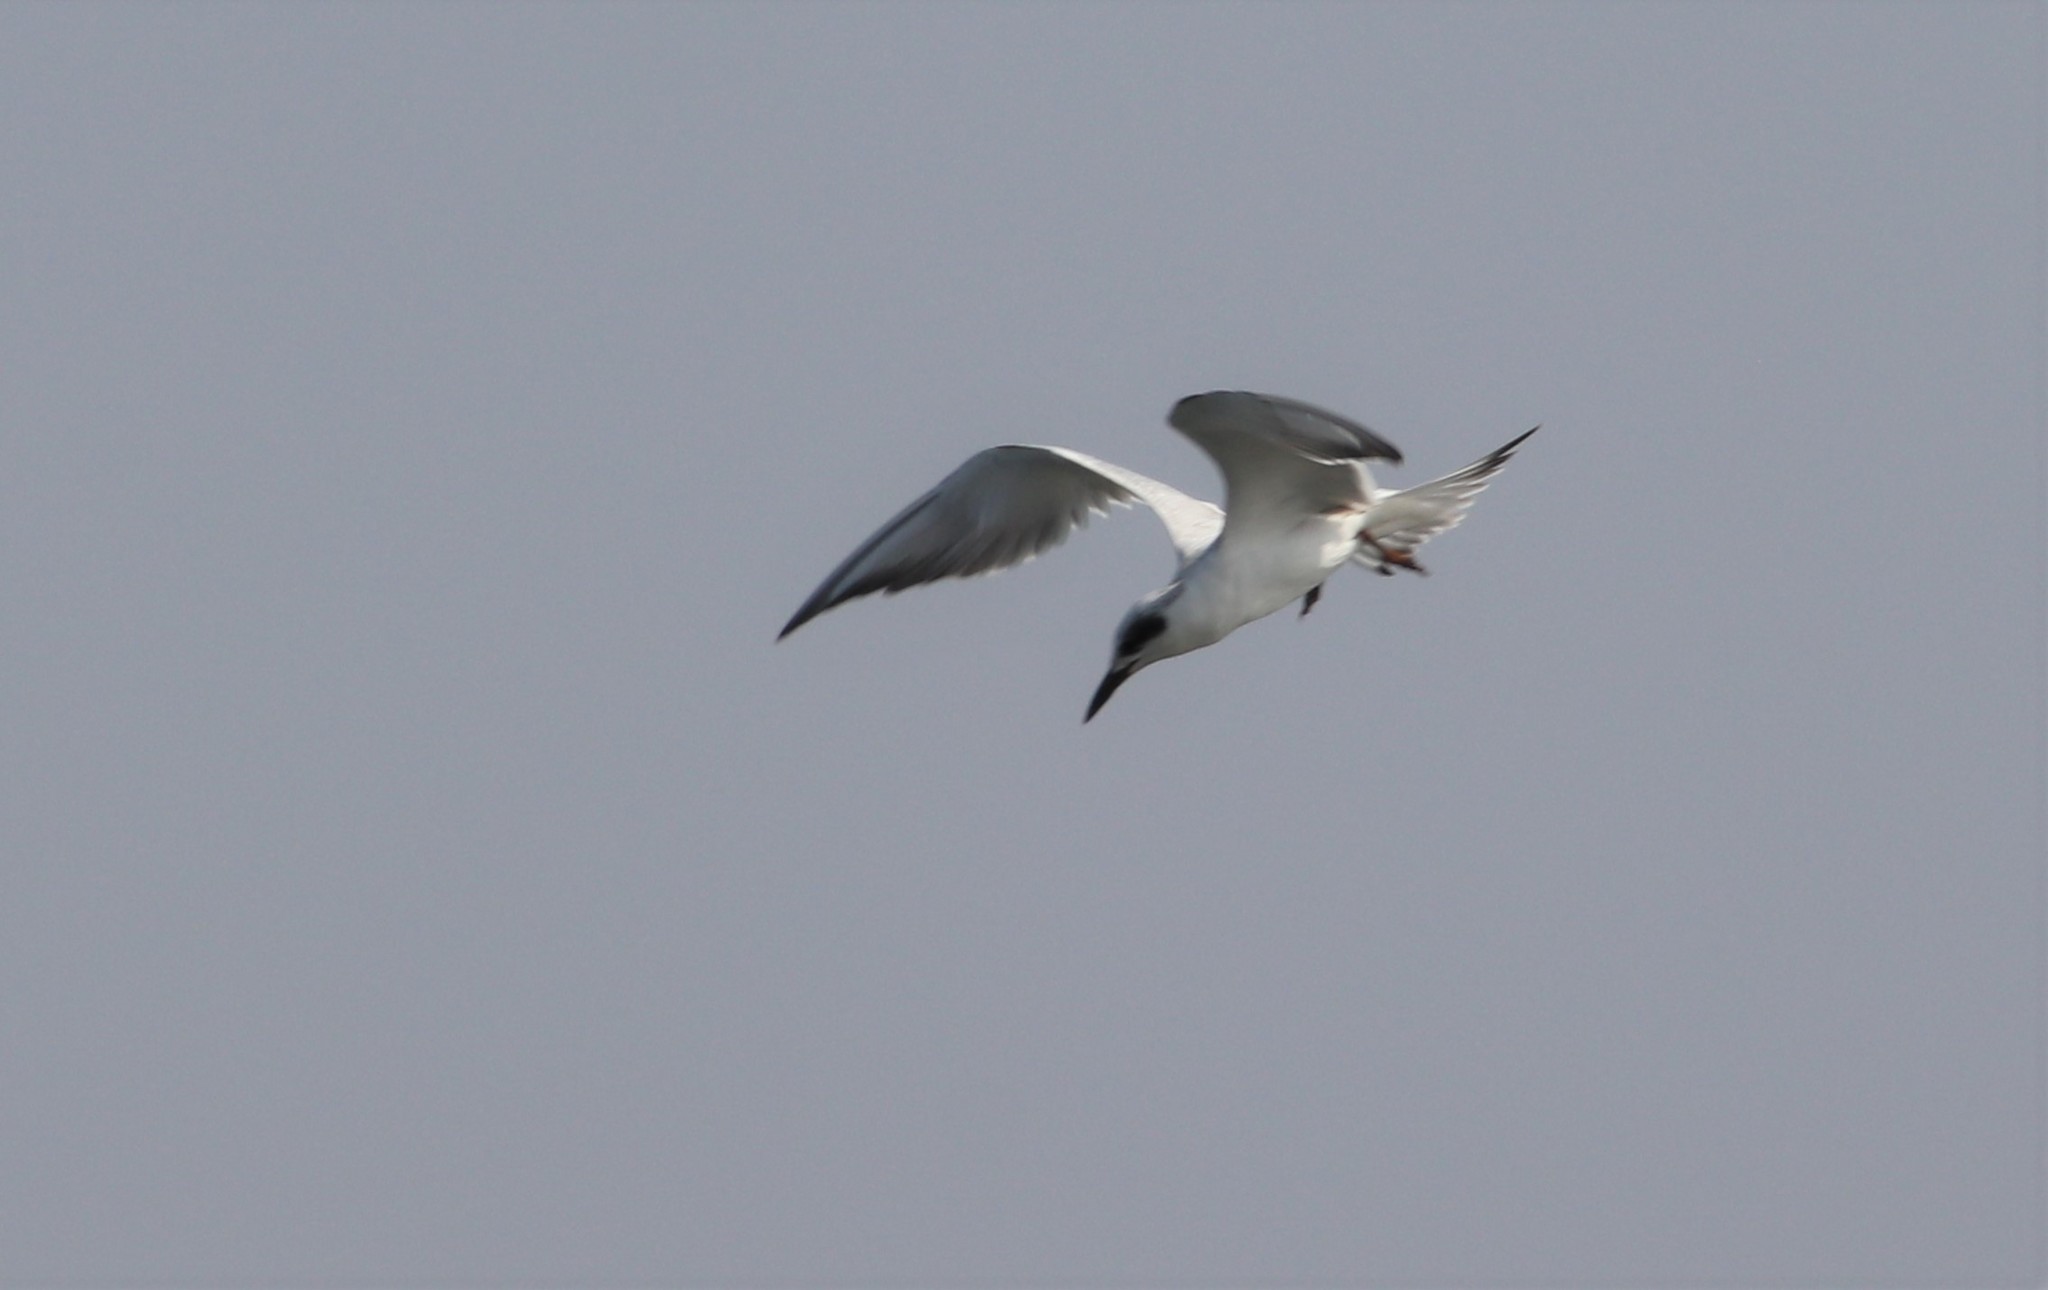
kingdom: Animalia
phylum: Chordata
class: Aves
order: Charadriiformes
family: Laridae
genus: Sterna
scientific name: Sterna forsteri
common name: Forster's tern
